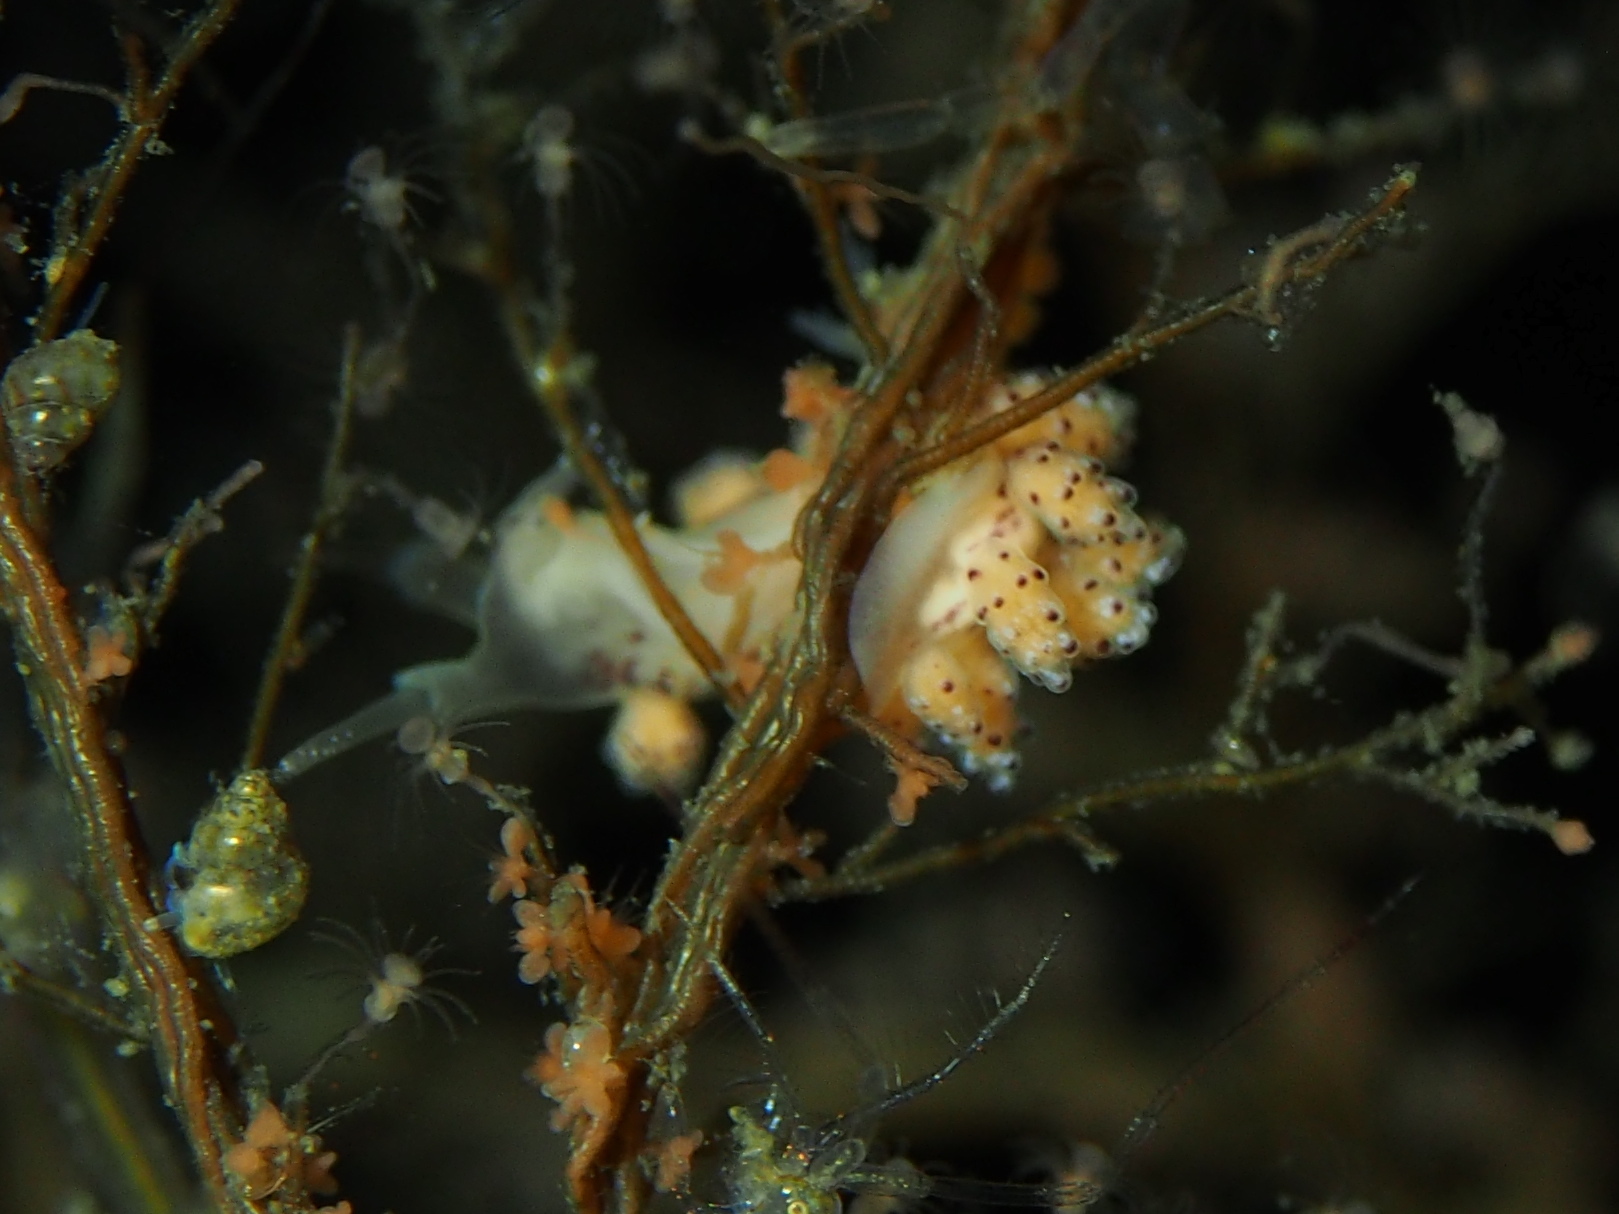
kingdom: Animalia
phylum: Mollusca
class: Gastropoda
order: Nudibranchia
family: Dotidae
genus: Doto
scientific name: Doto dunnei
